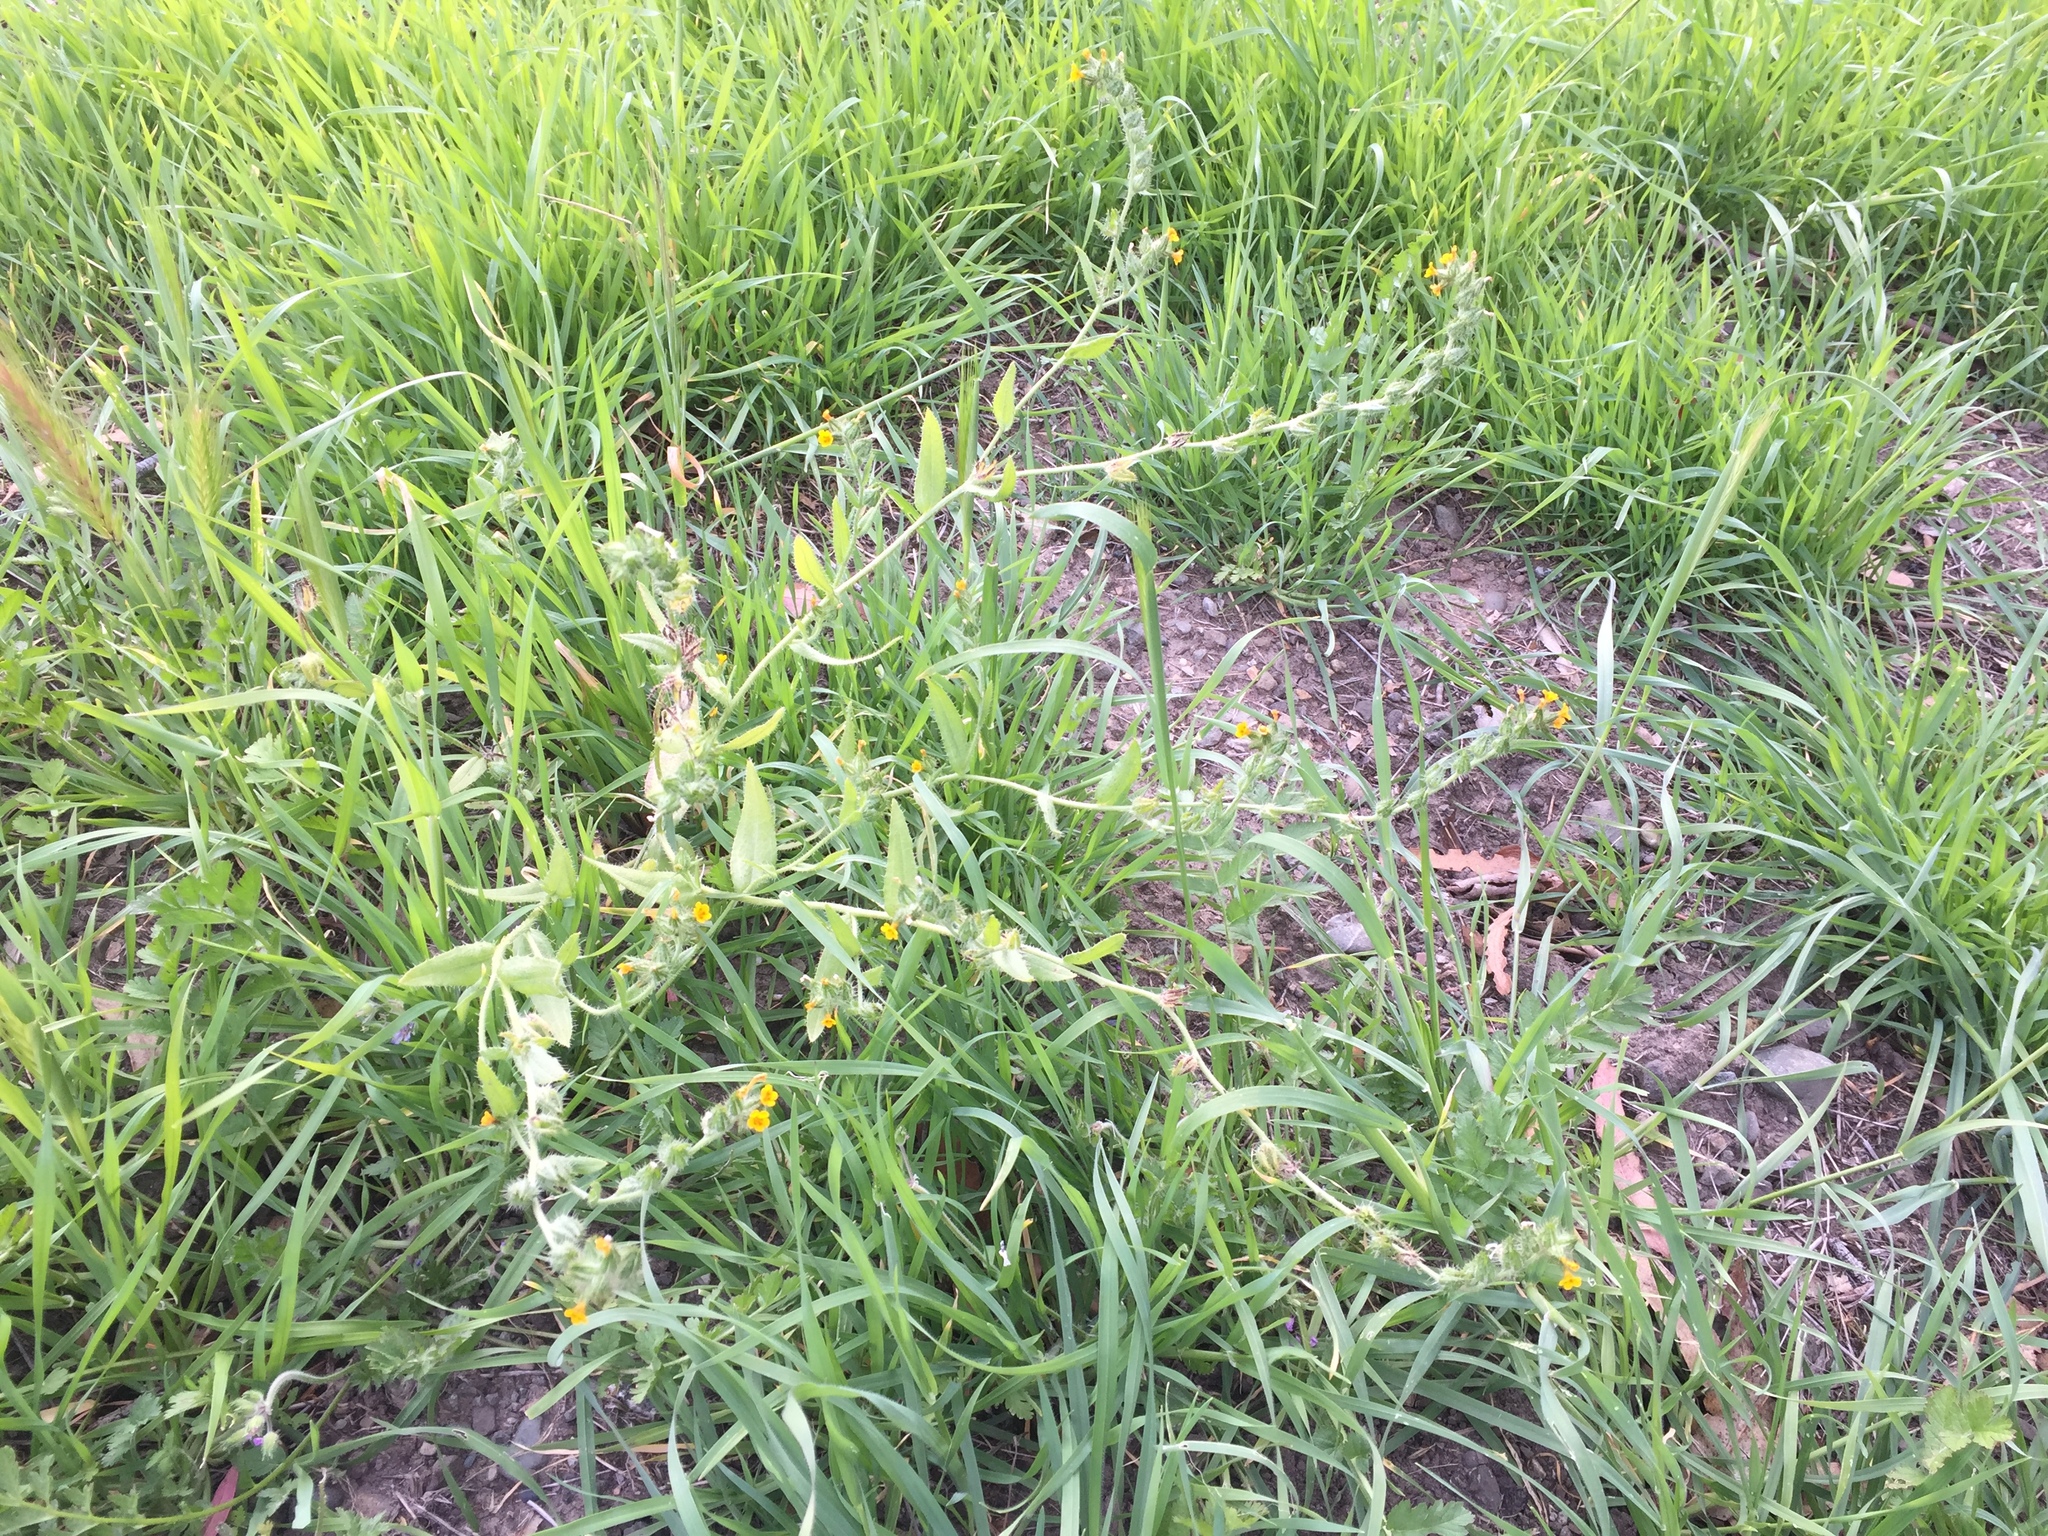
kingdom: Plantae
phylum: Tracheophyta
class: Magnoliopsida
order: Boraginales
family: Boraginaceae
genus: Amsinckia
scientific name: Amsinckia menziesii
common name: Menzies' fiddleneck
